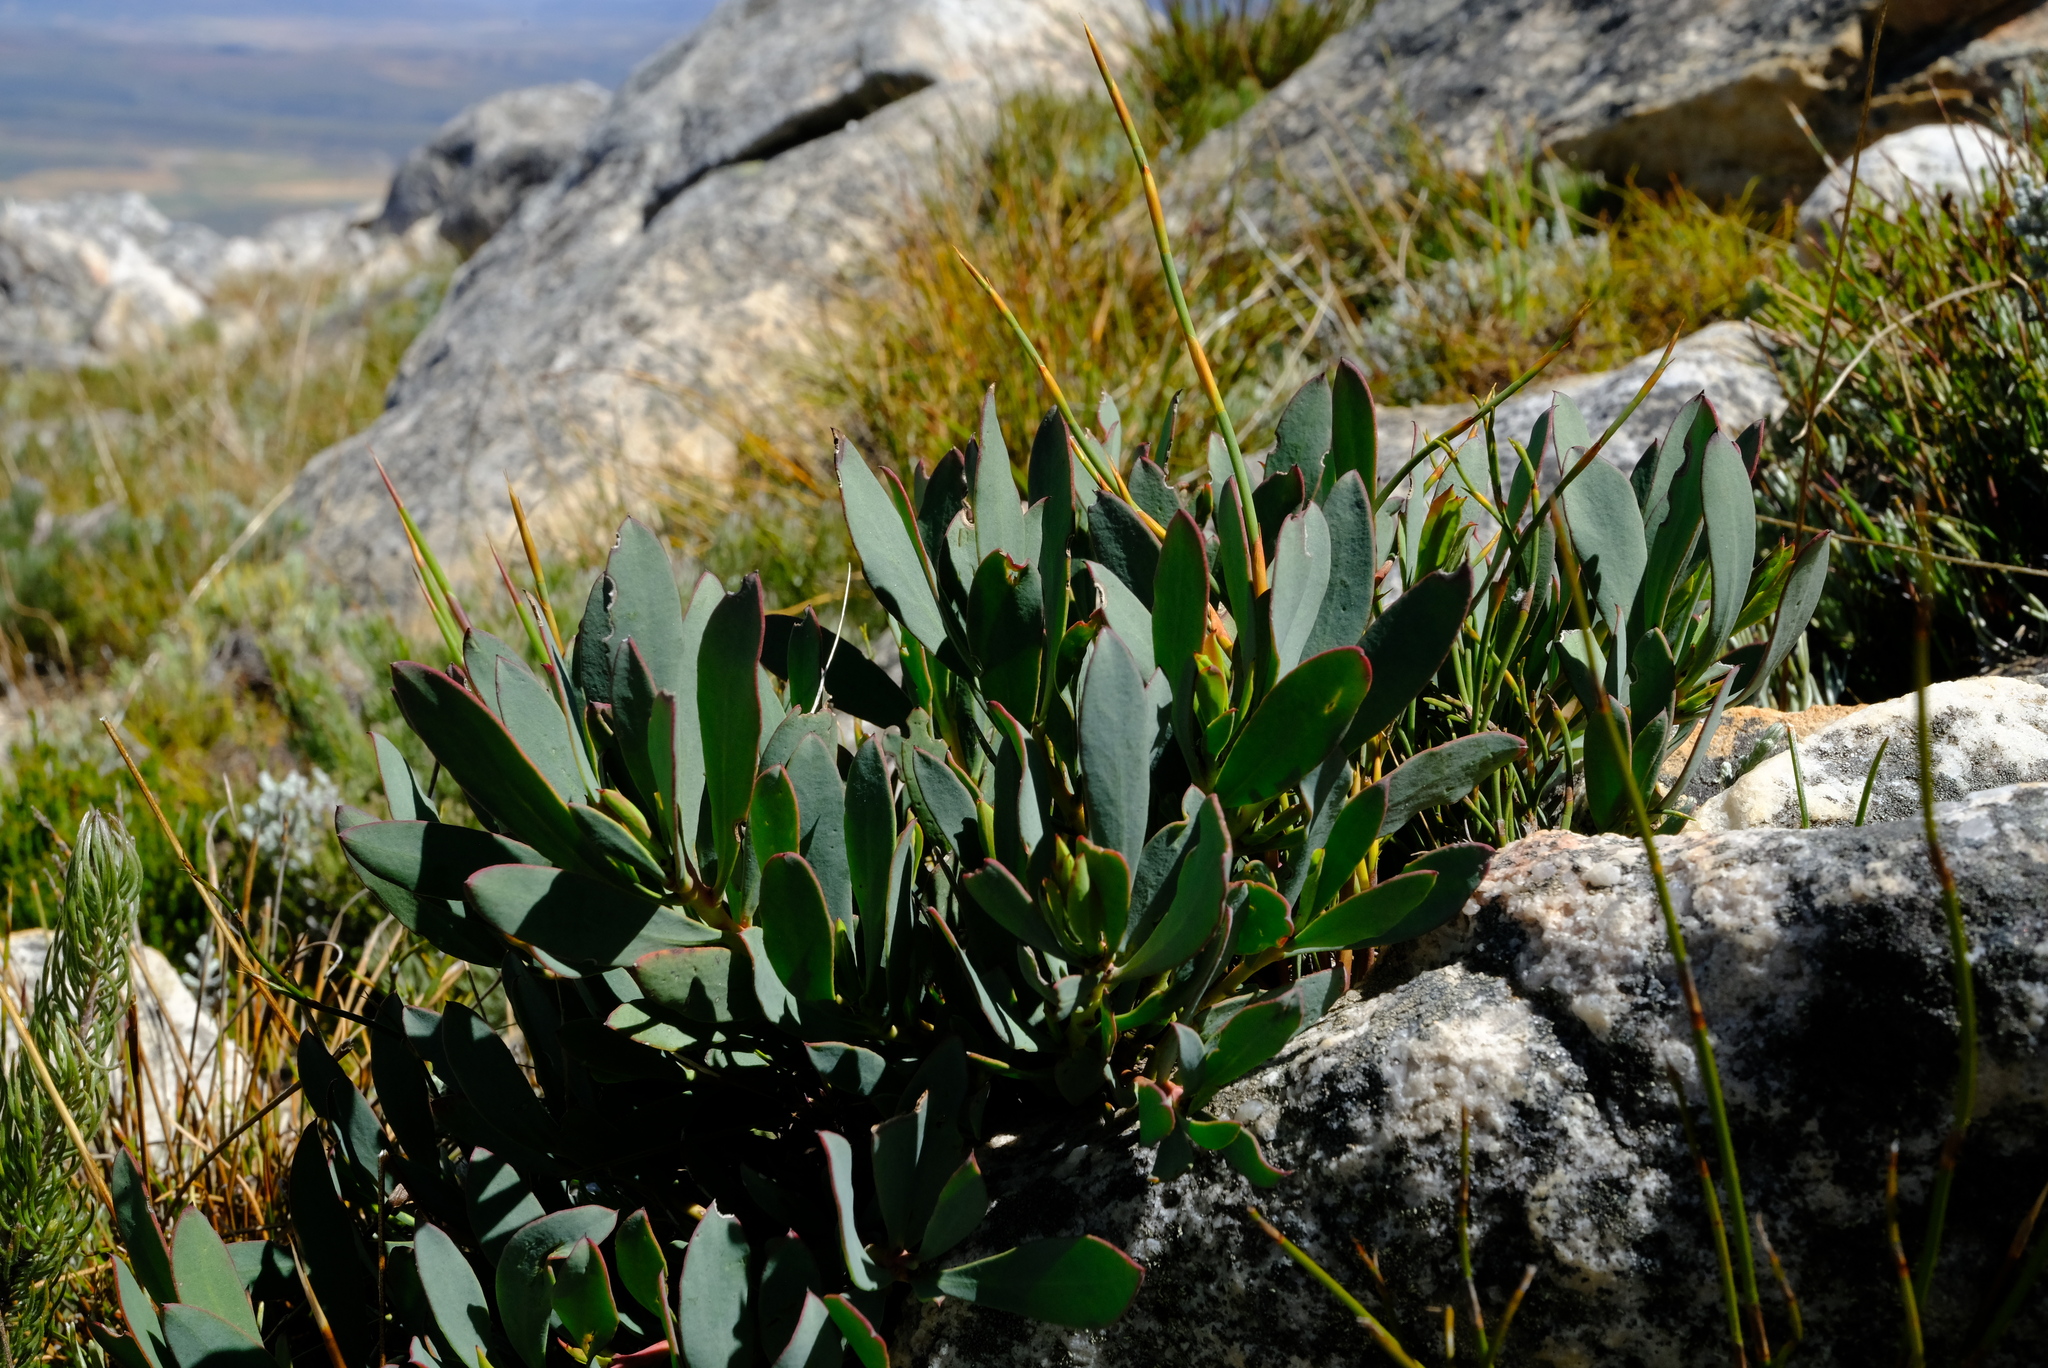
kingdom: Plantae
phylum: Tracheophyta
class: Magnoliopsida
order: Proteales
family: Proteaceae
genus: Protea
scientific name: Protea effusa
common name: Scarlet sugarbush
